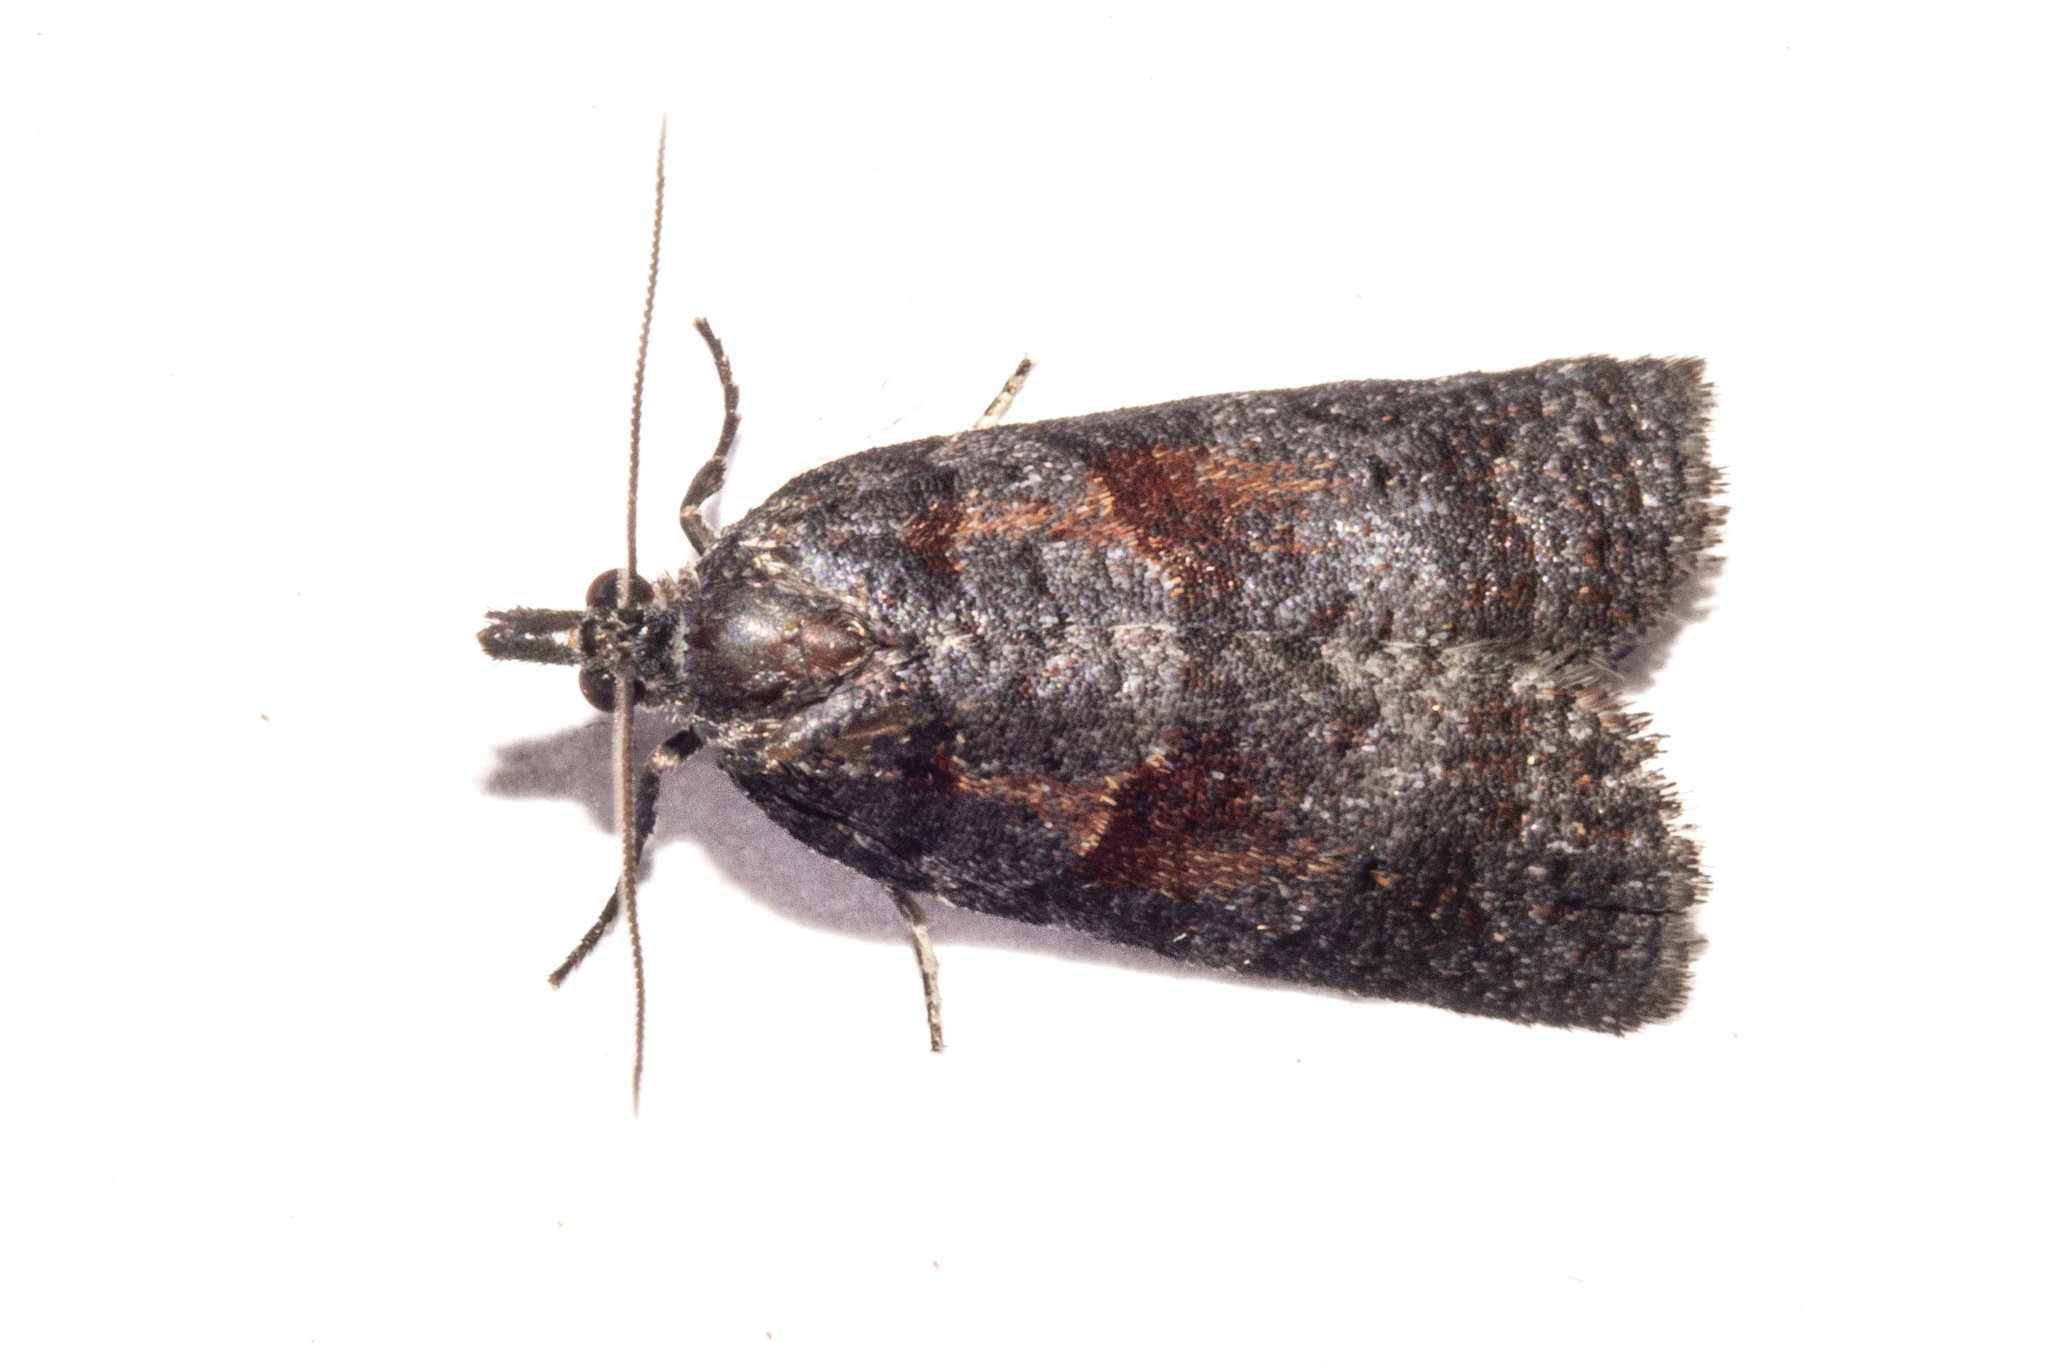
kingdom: Animalia
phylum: Arthropoda
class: Insecta
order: Lepidoptera
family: Tortricidae
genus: Maoritenes
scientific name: Maoritenes cyclobathra
